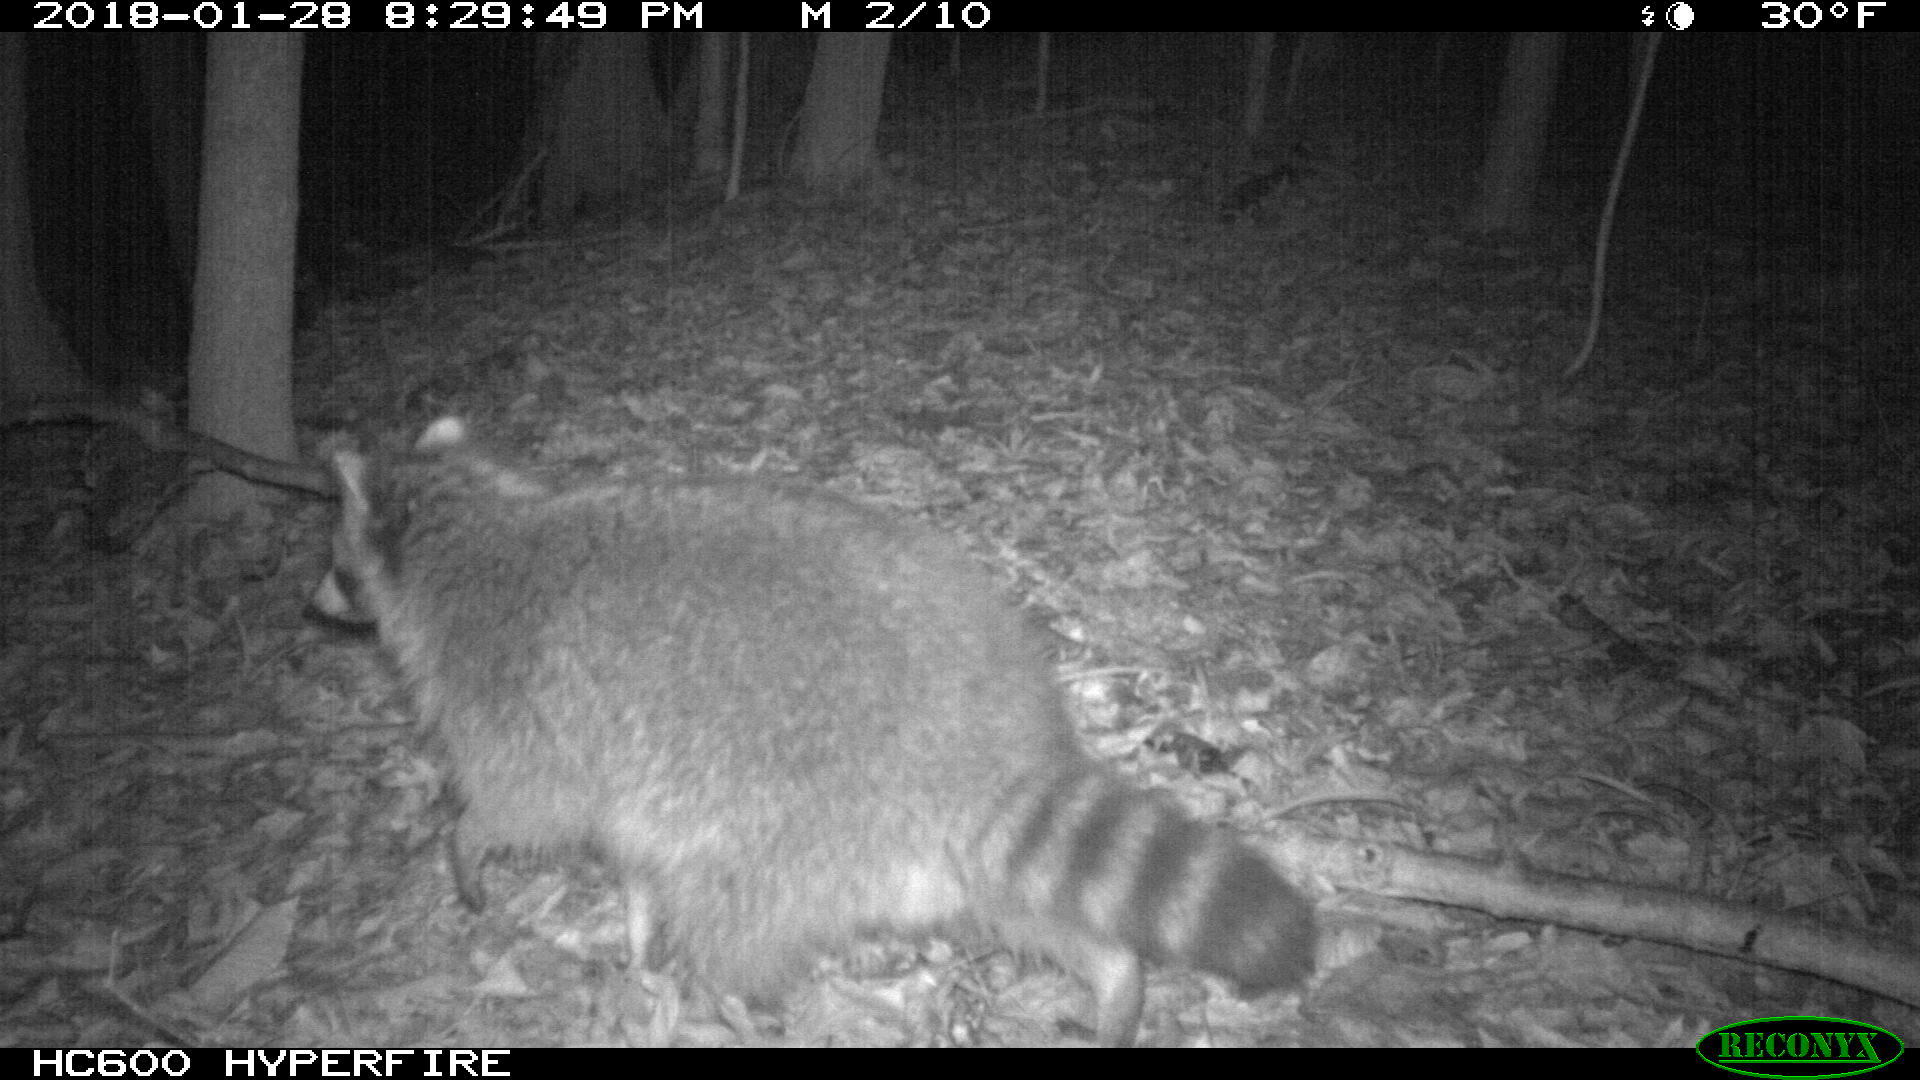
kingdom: Animalia
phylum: Chordata
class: Mammalia
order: Carnivora
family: Procyonidae
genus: Procyon
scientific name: Procyon lotor
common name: Raccoon
